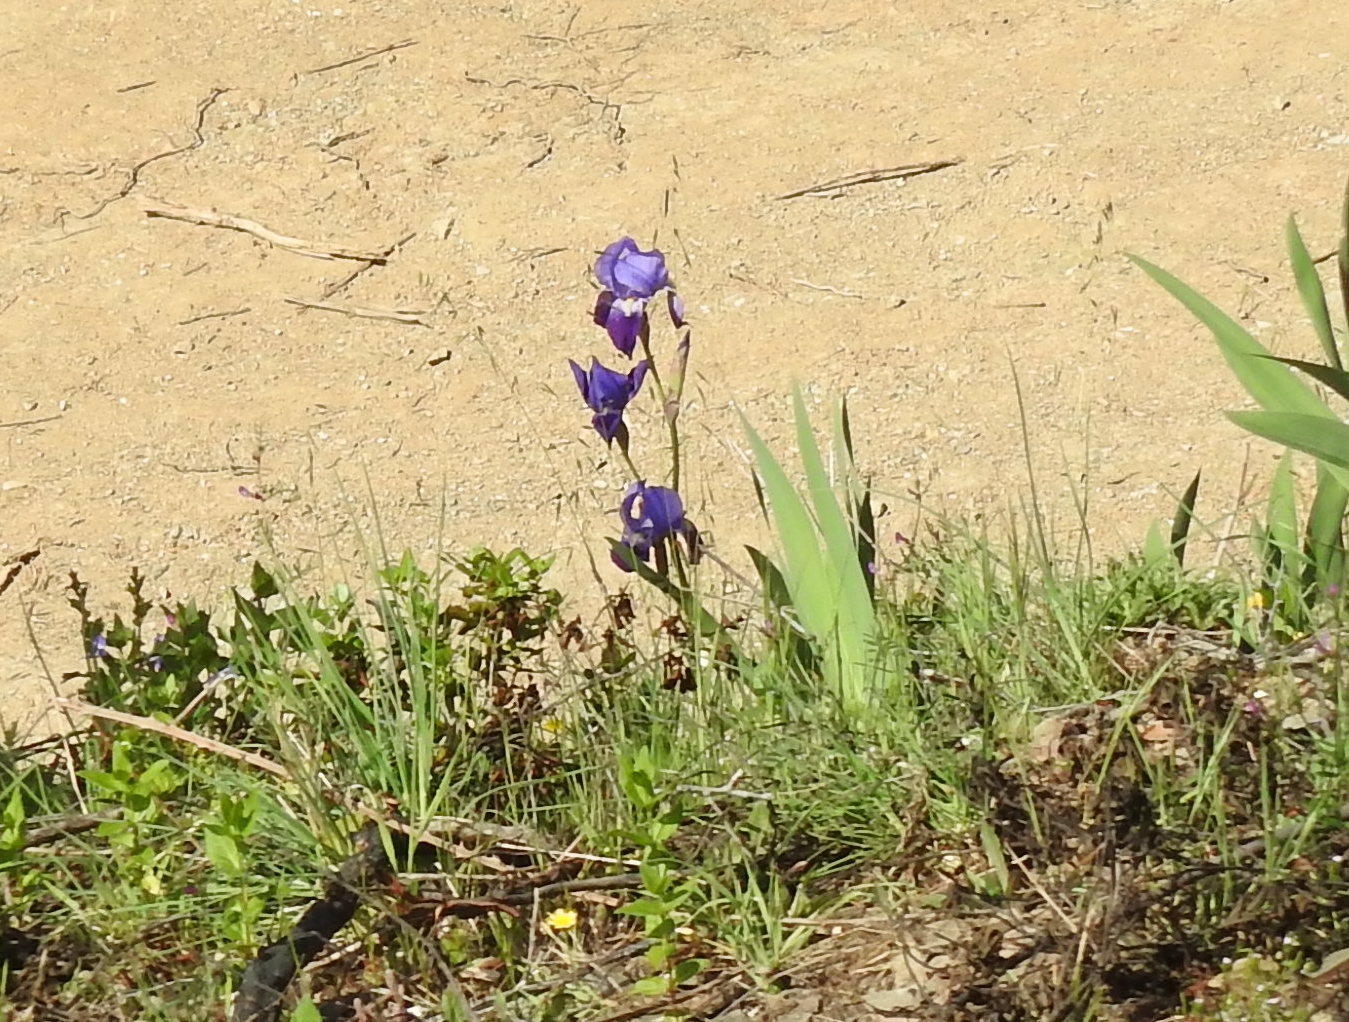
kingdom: Plantae
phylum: Tracheophyta
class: Liliopsida
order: Asparagales
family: Iridaceae
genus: Iris
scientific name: Iris germanica
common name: German iris
